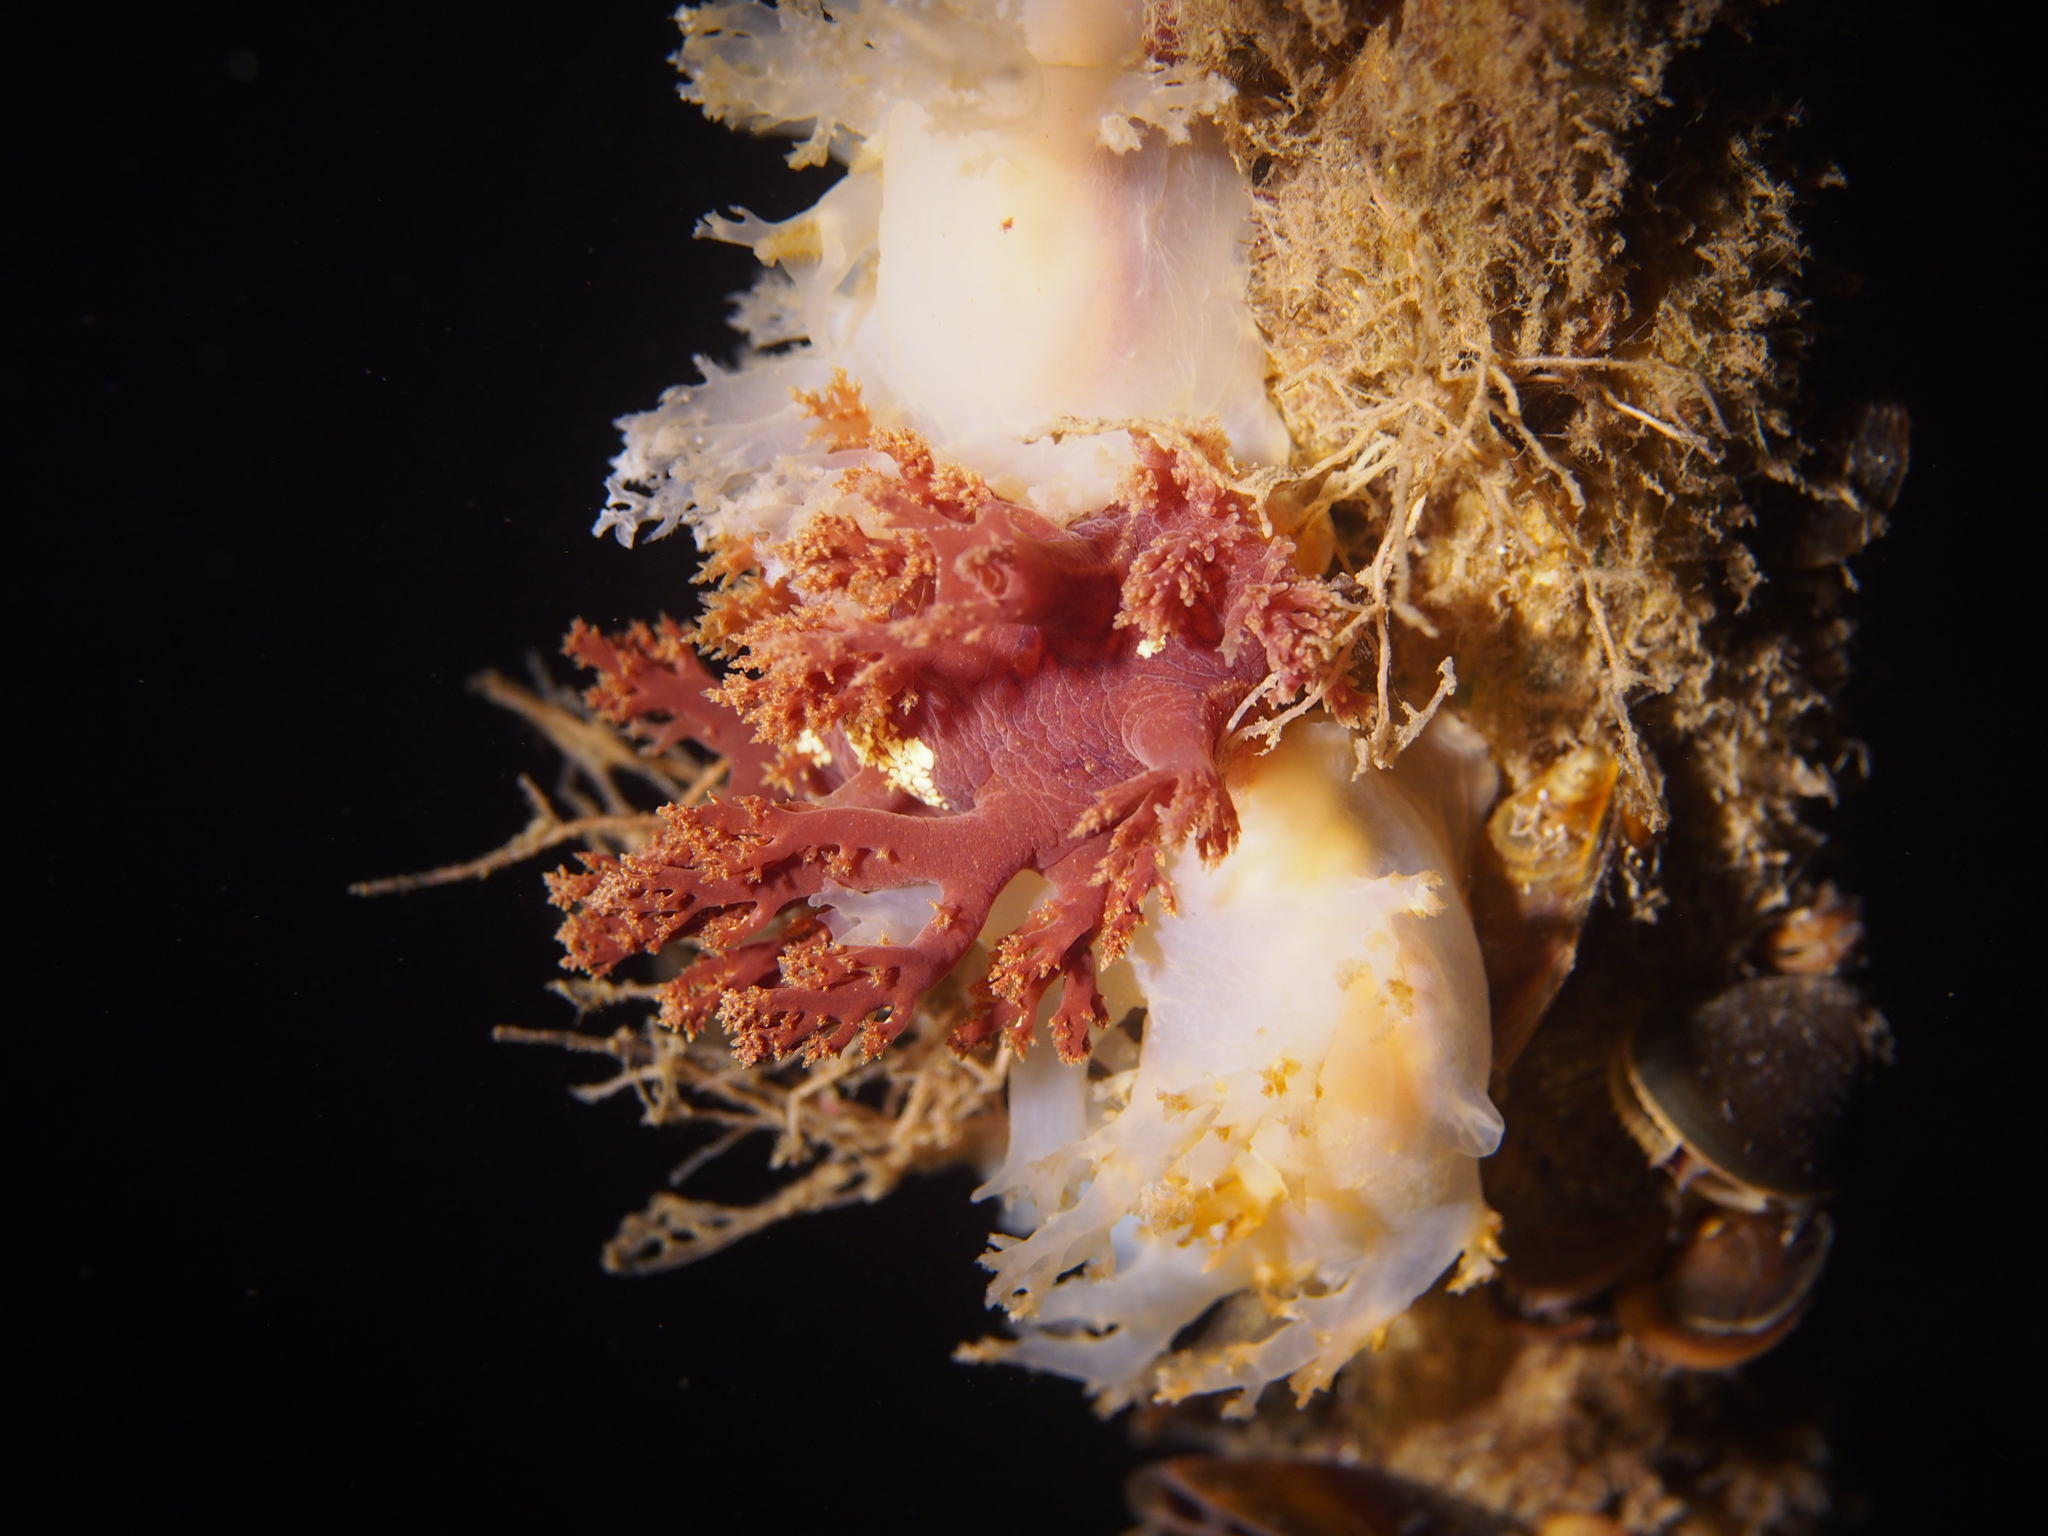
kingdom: Animalia
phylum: Mollusca
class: Gastropoda
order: Nudibranchia
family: Dendronotidae
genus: Dendronotus
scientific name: Dendronotus lacteus
